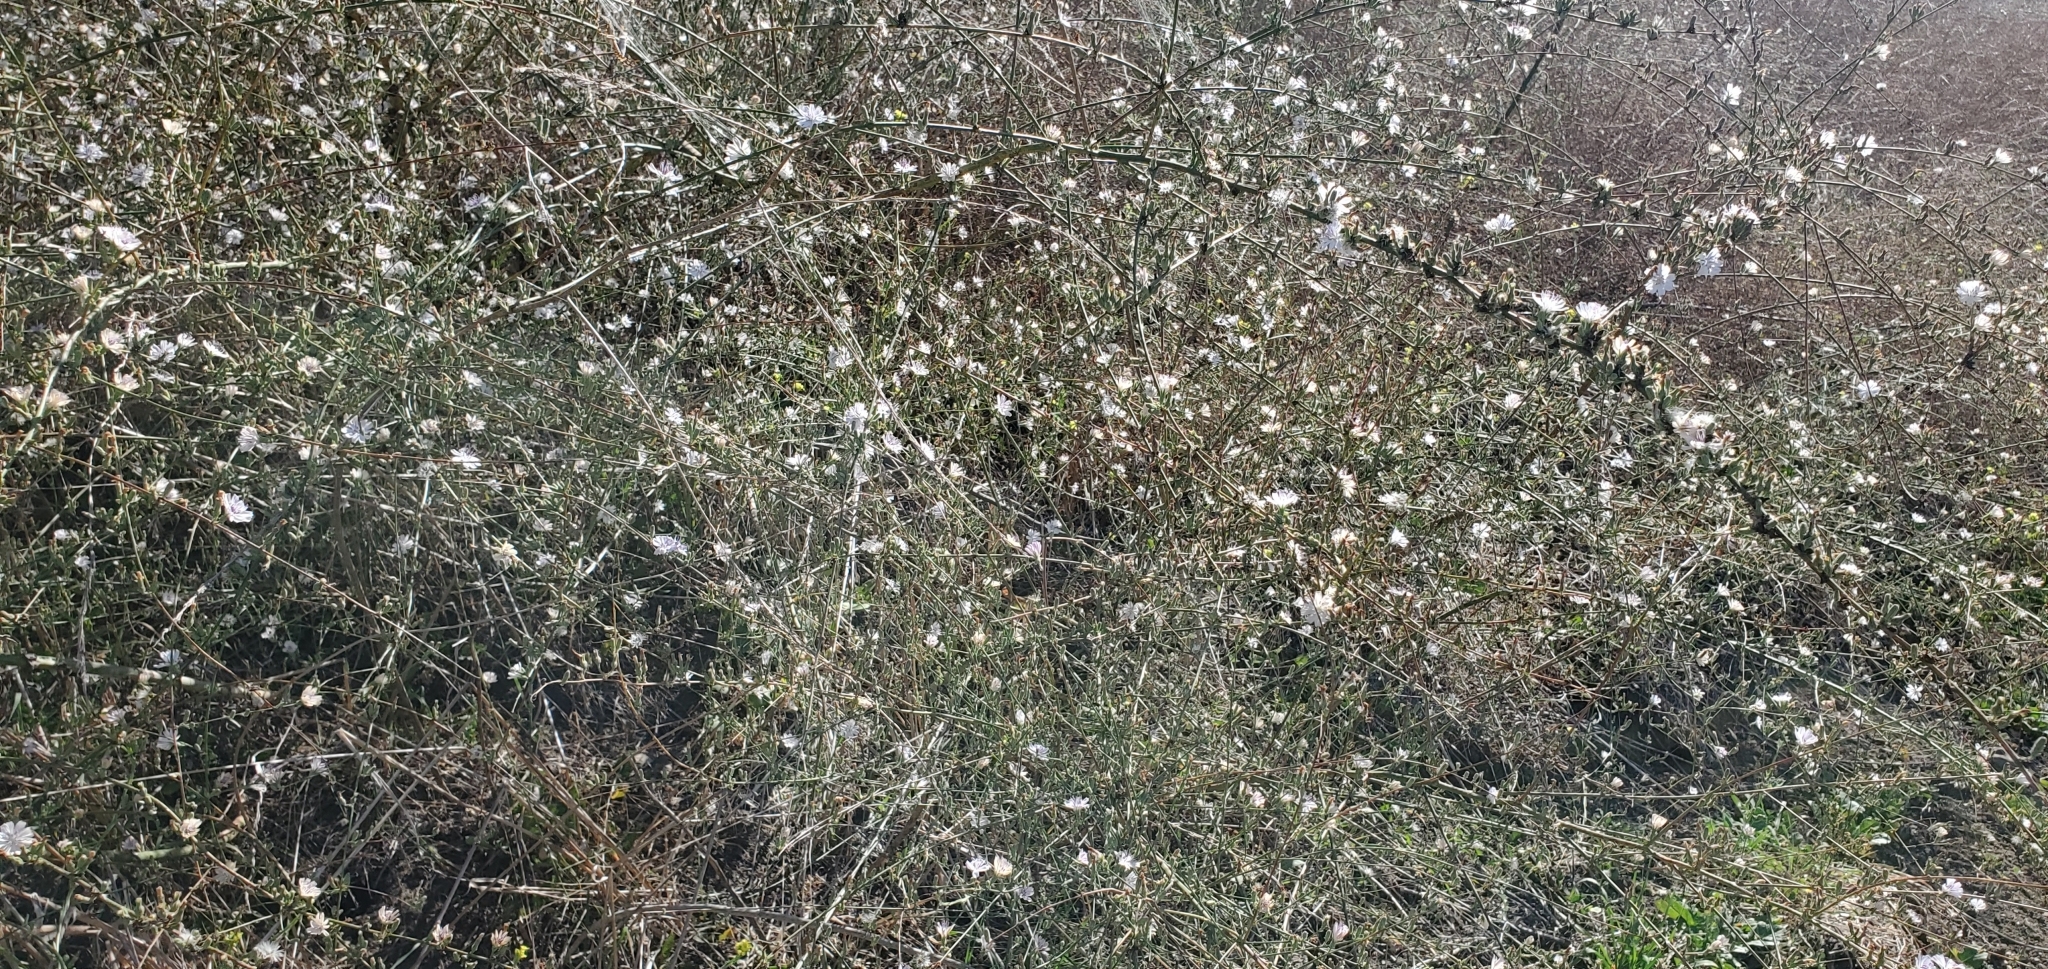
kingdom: Plantae
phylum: Tracheophyta
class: Magnoliopsida
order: Asterales
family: Asteraceae
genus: Stephanomeria
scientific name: Stephanomeria diegensis
